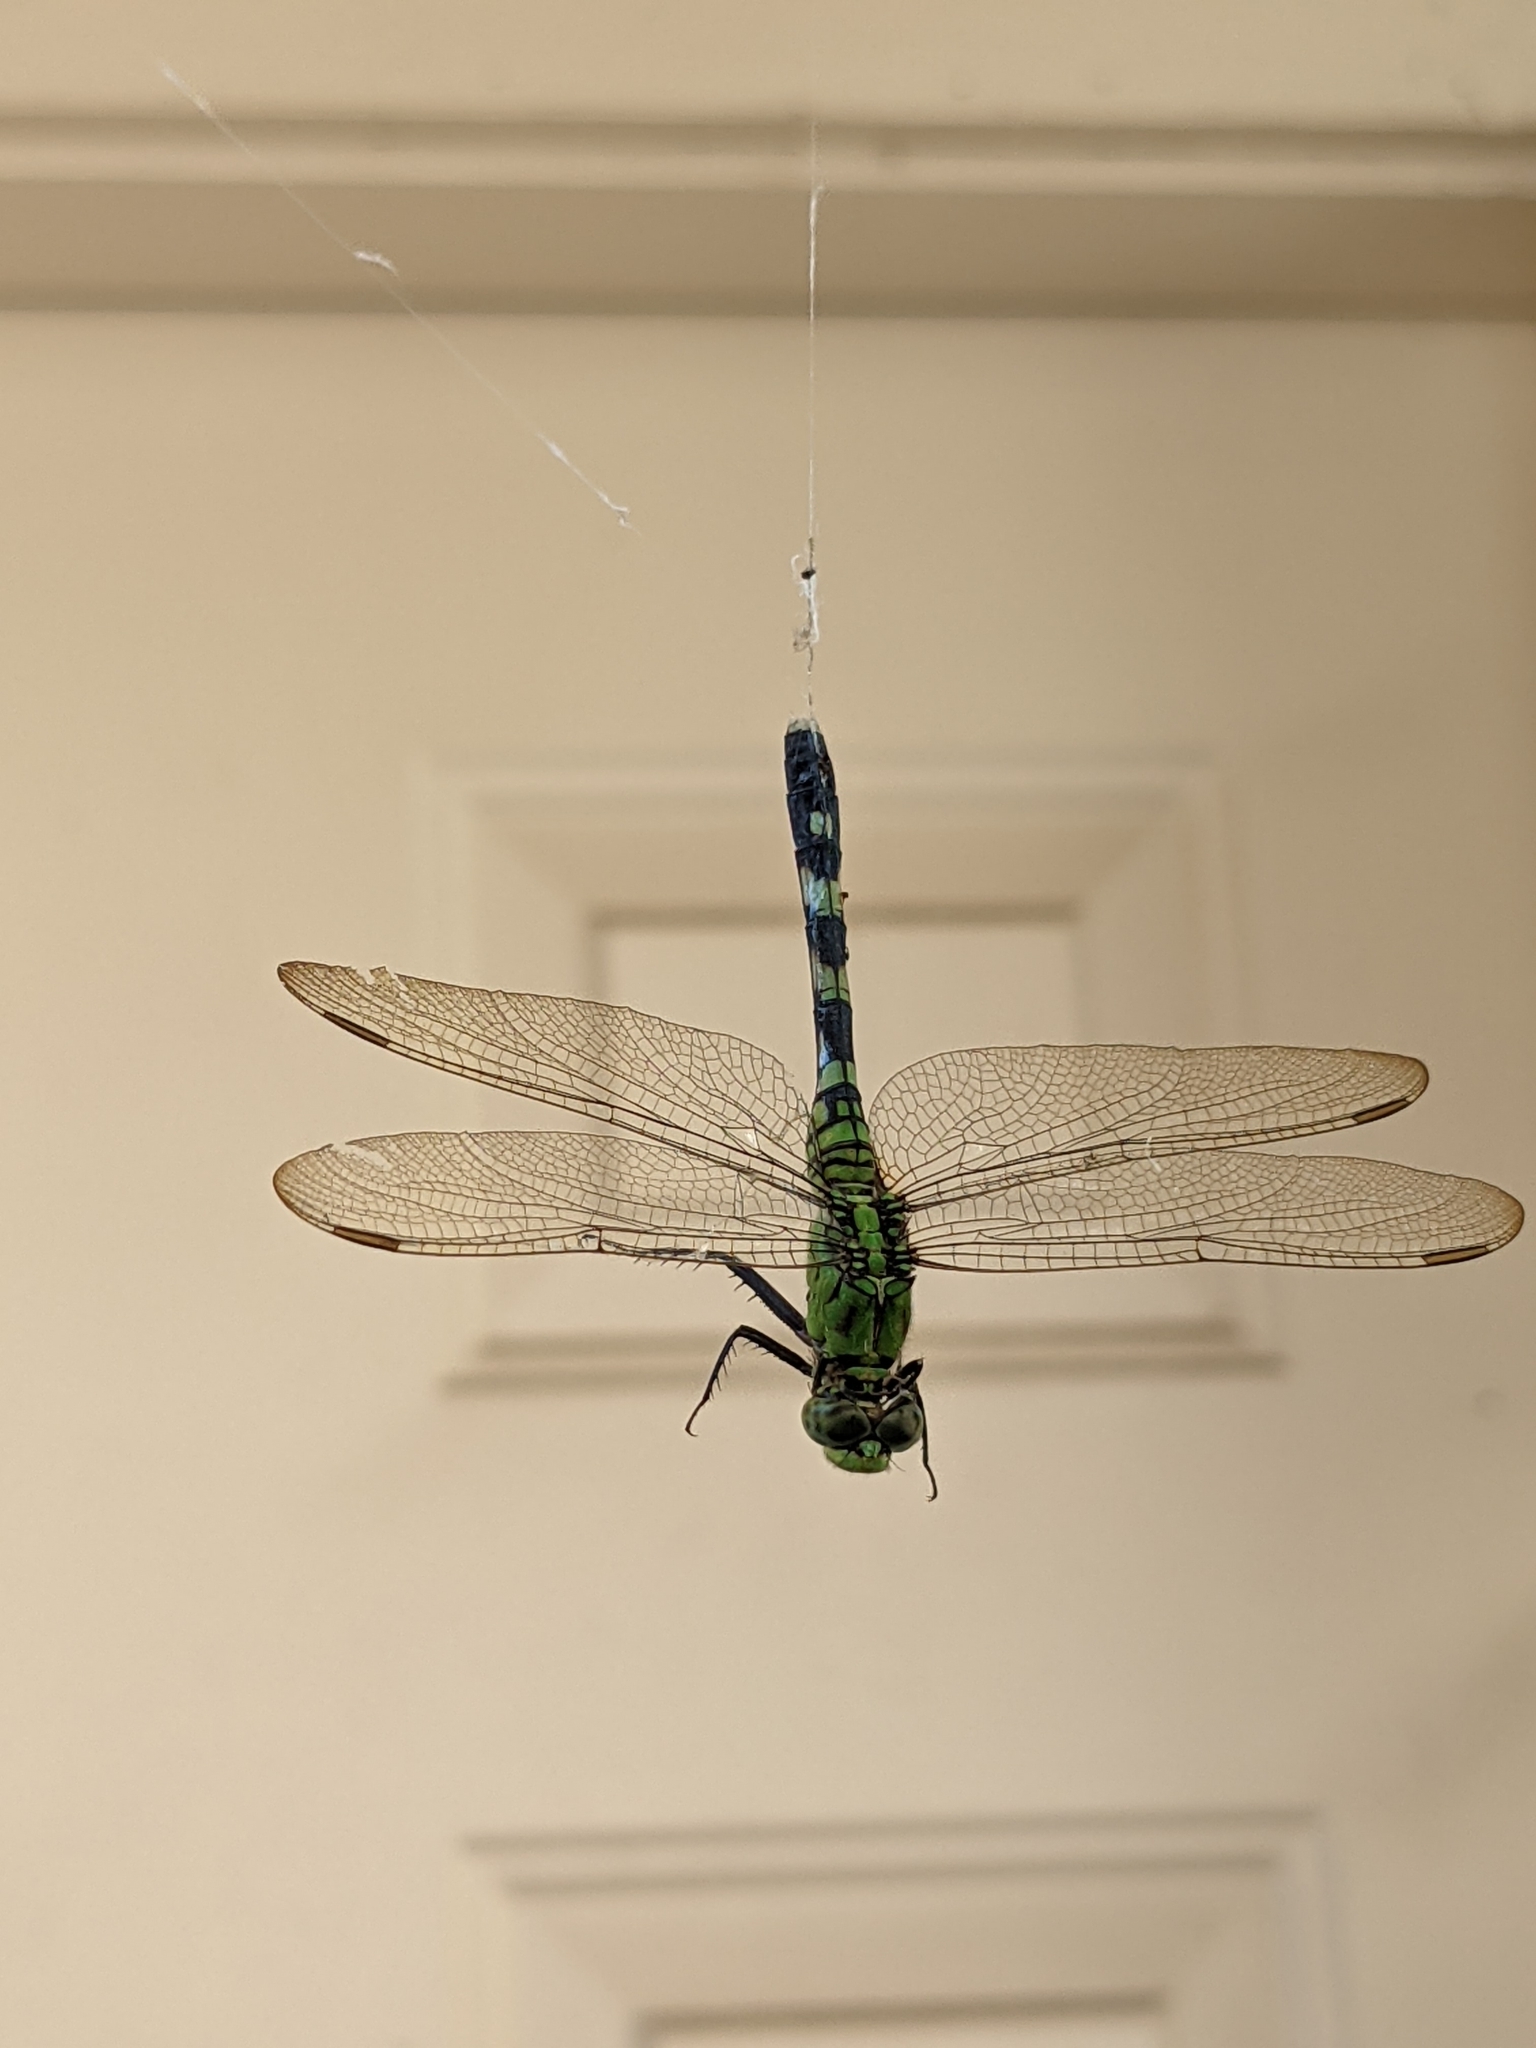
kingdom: Animalia
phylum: Arthropoda
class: Insecta
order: Odonata
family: Libellulidae
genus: Erythemis
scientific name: Erythemis simplicicollis
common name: Eastern pondhawk
